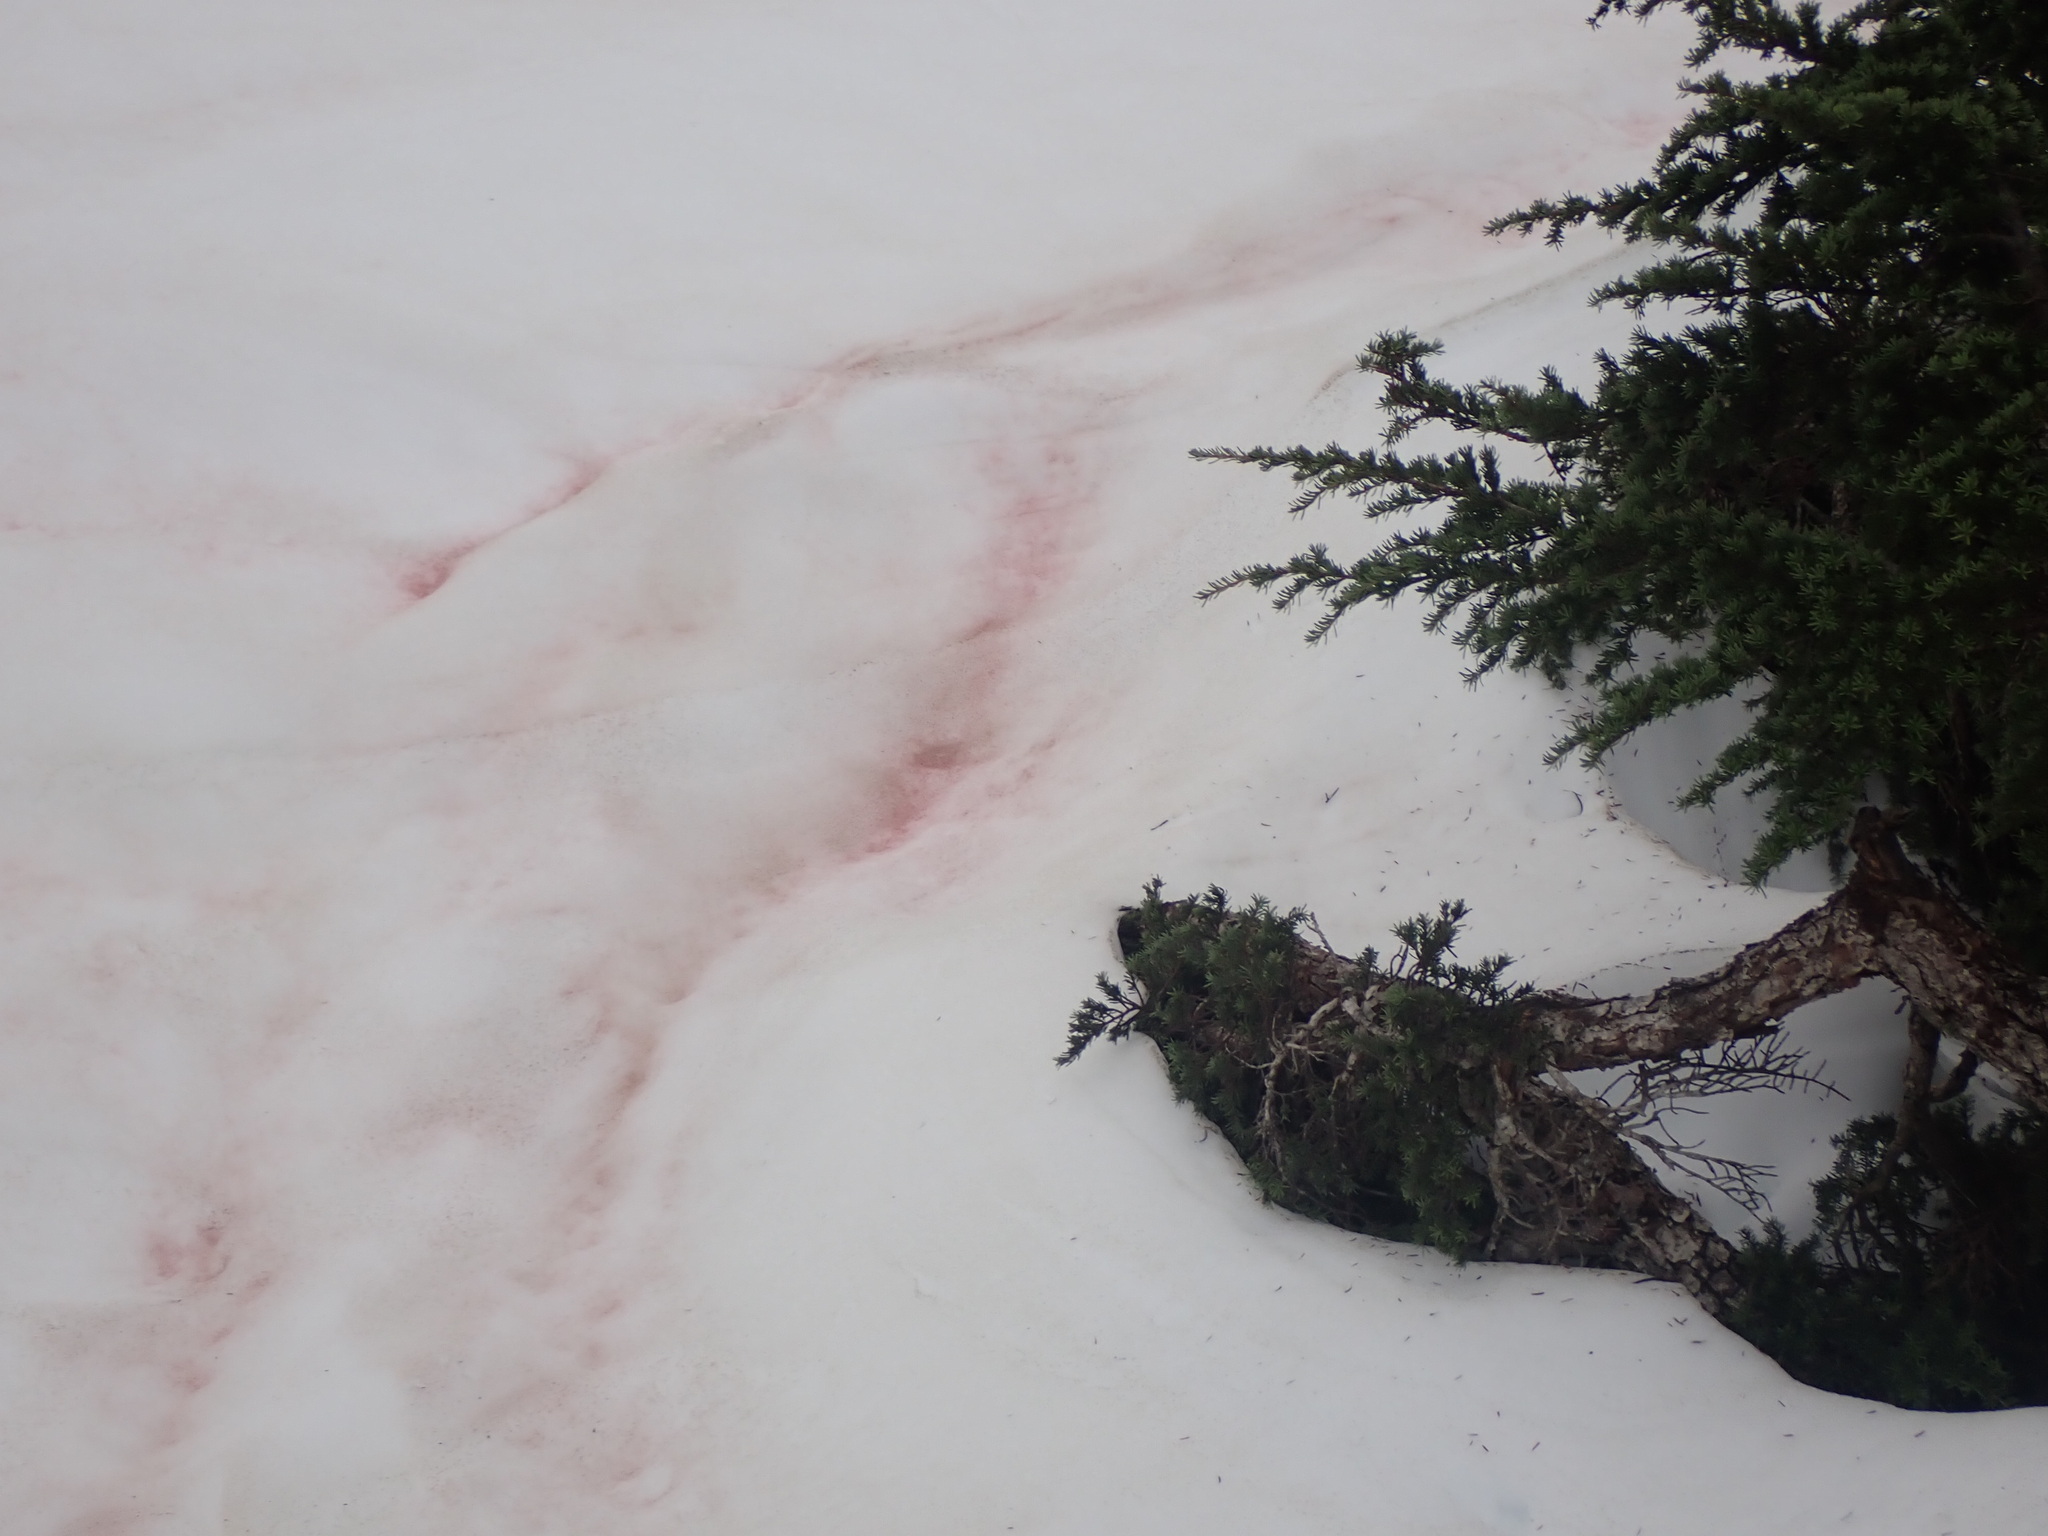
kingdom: Plantae
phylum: Chlorophyta
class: Chlorophyceae
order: Volvocales
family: Chlamydomonadaceae
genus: Chlamydomonas
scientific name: Chlamydomonas nivalis
